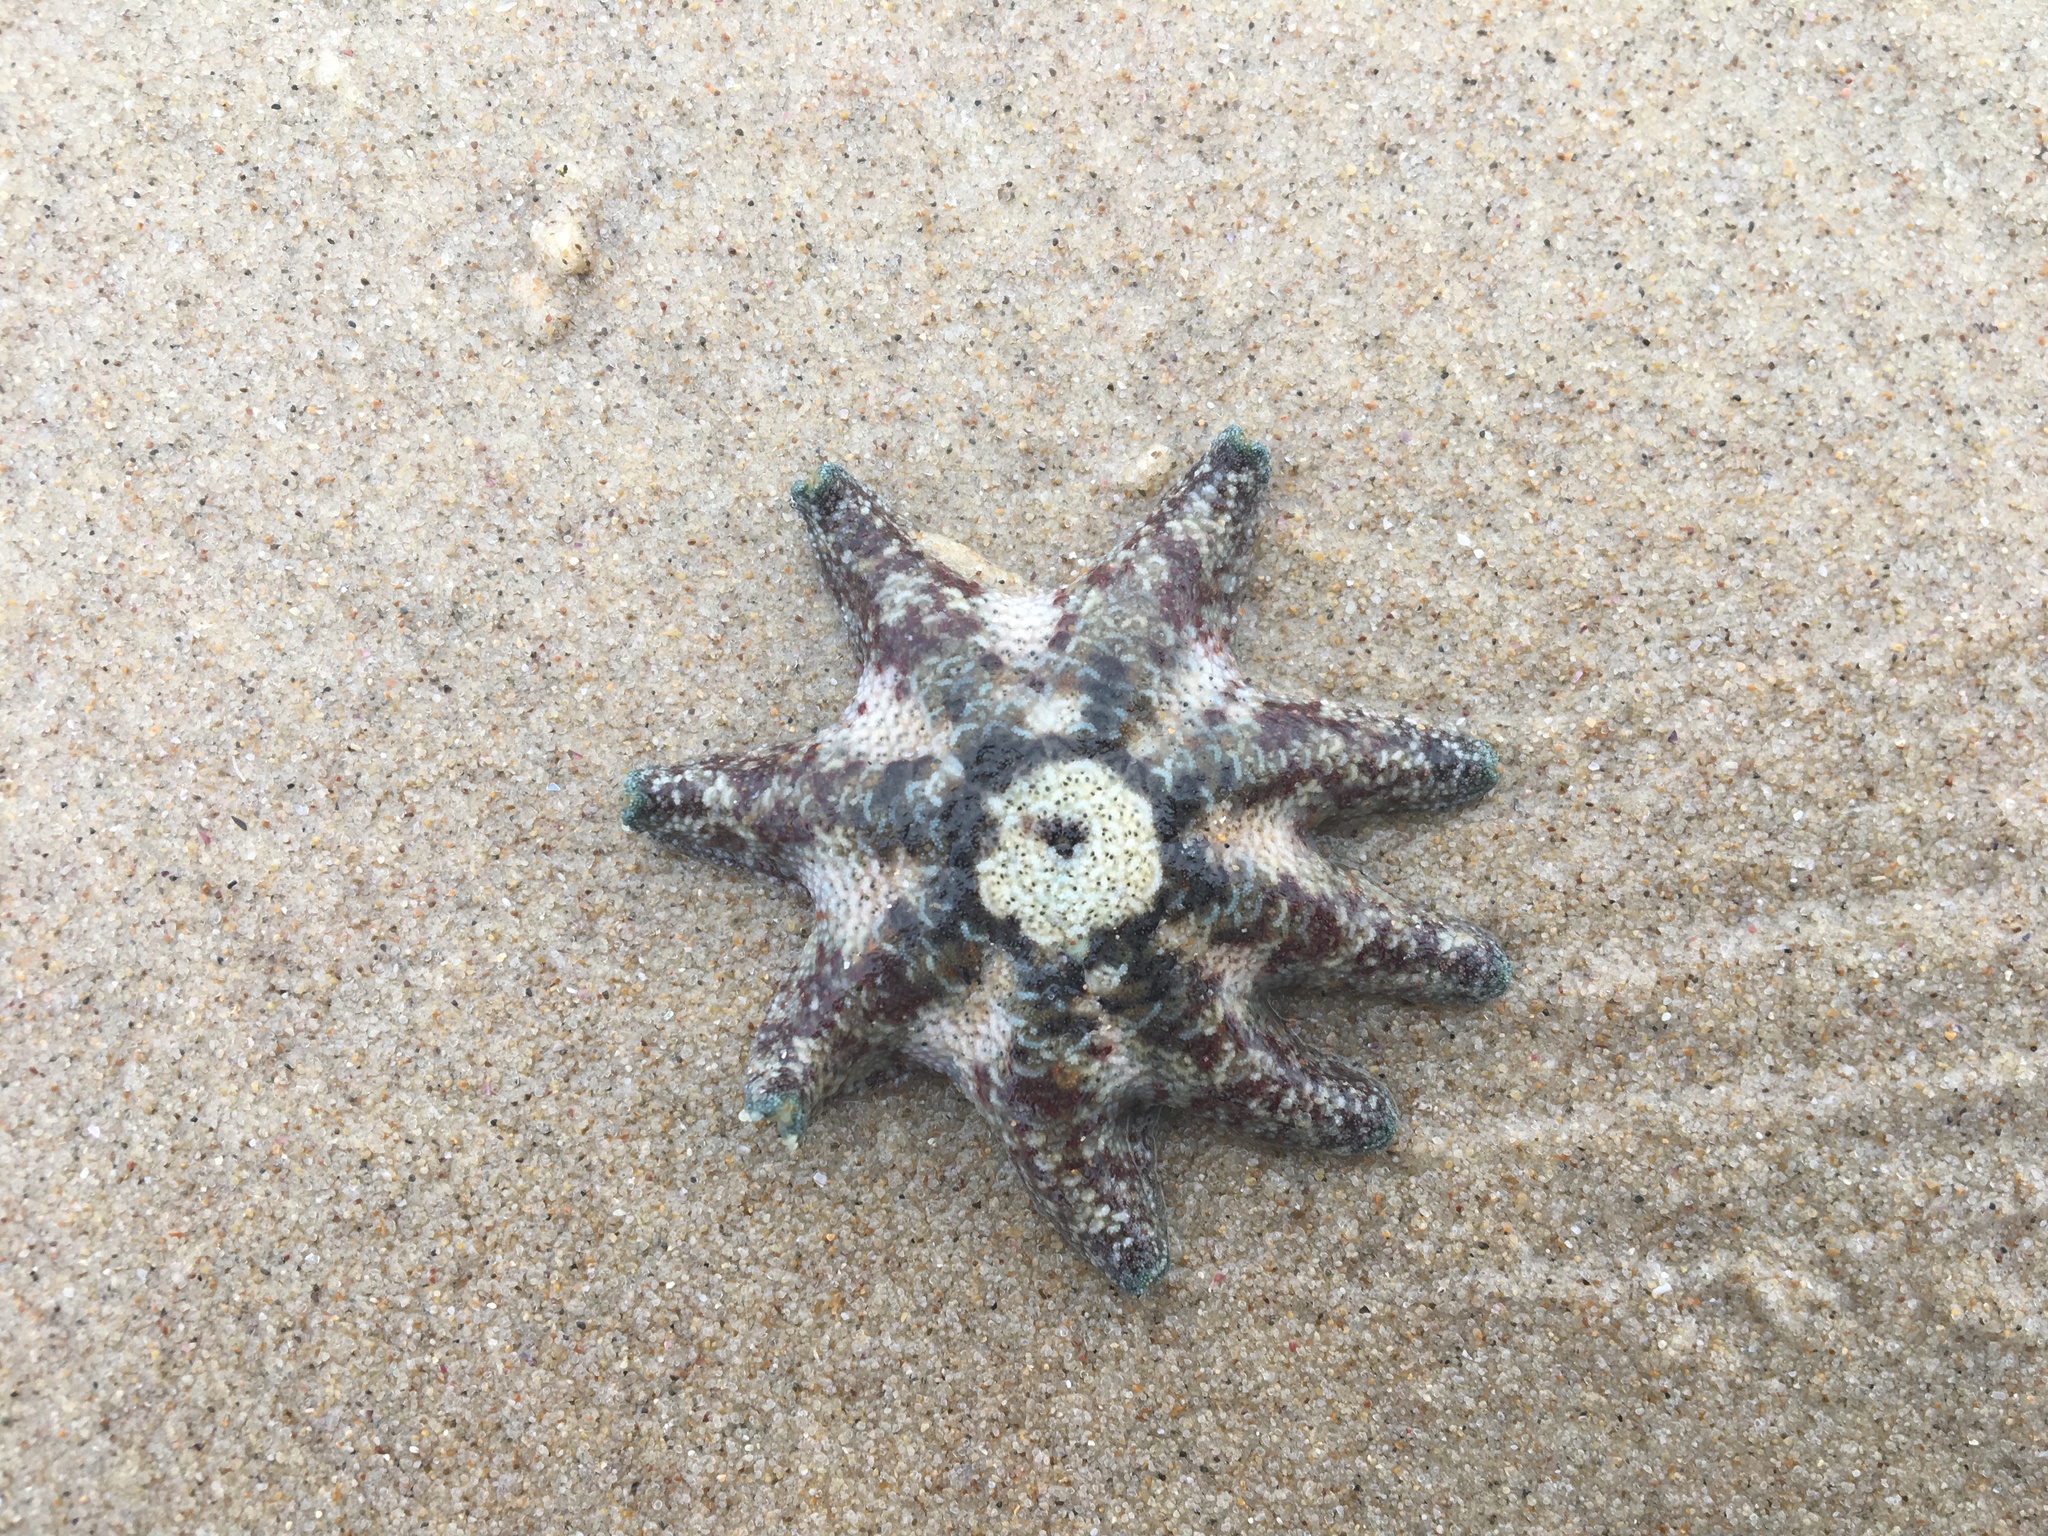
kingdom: Animalia
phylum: Echinodermata
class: Asteroidea
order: Valvatida
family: Asterinidae
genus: Meridiastra
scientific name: Meridiastra calcar
